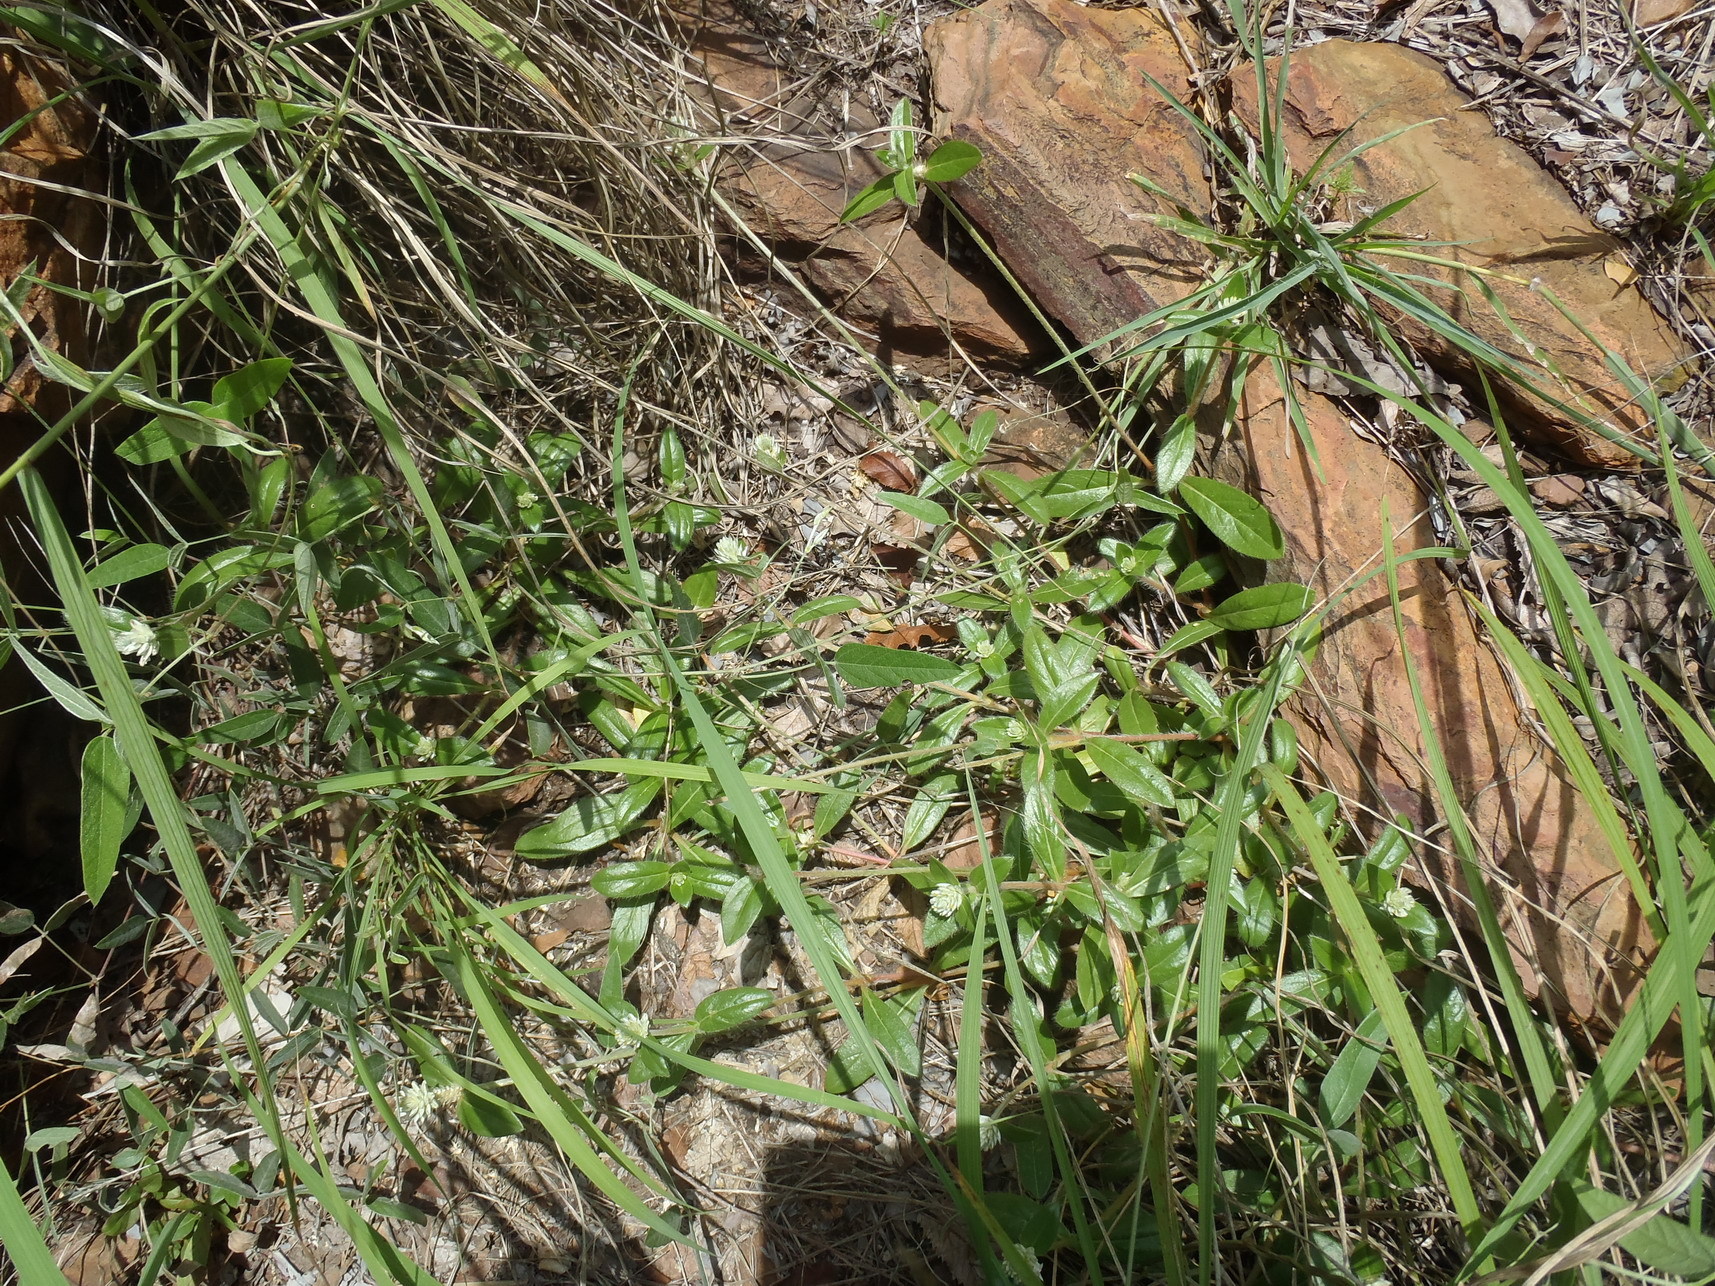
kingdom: Plantae
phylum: Tracheophyta
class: Magnoliopsida
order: Caryophyllales
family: Amaranthaceae
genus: Gomphrena
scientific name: Gomphrena celosioides
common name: Gomphrena-weed
